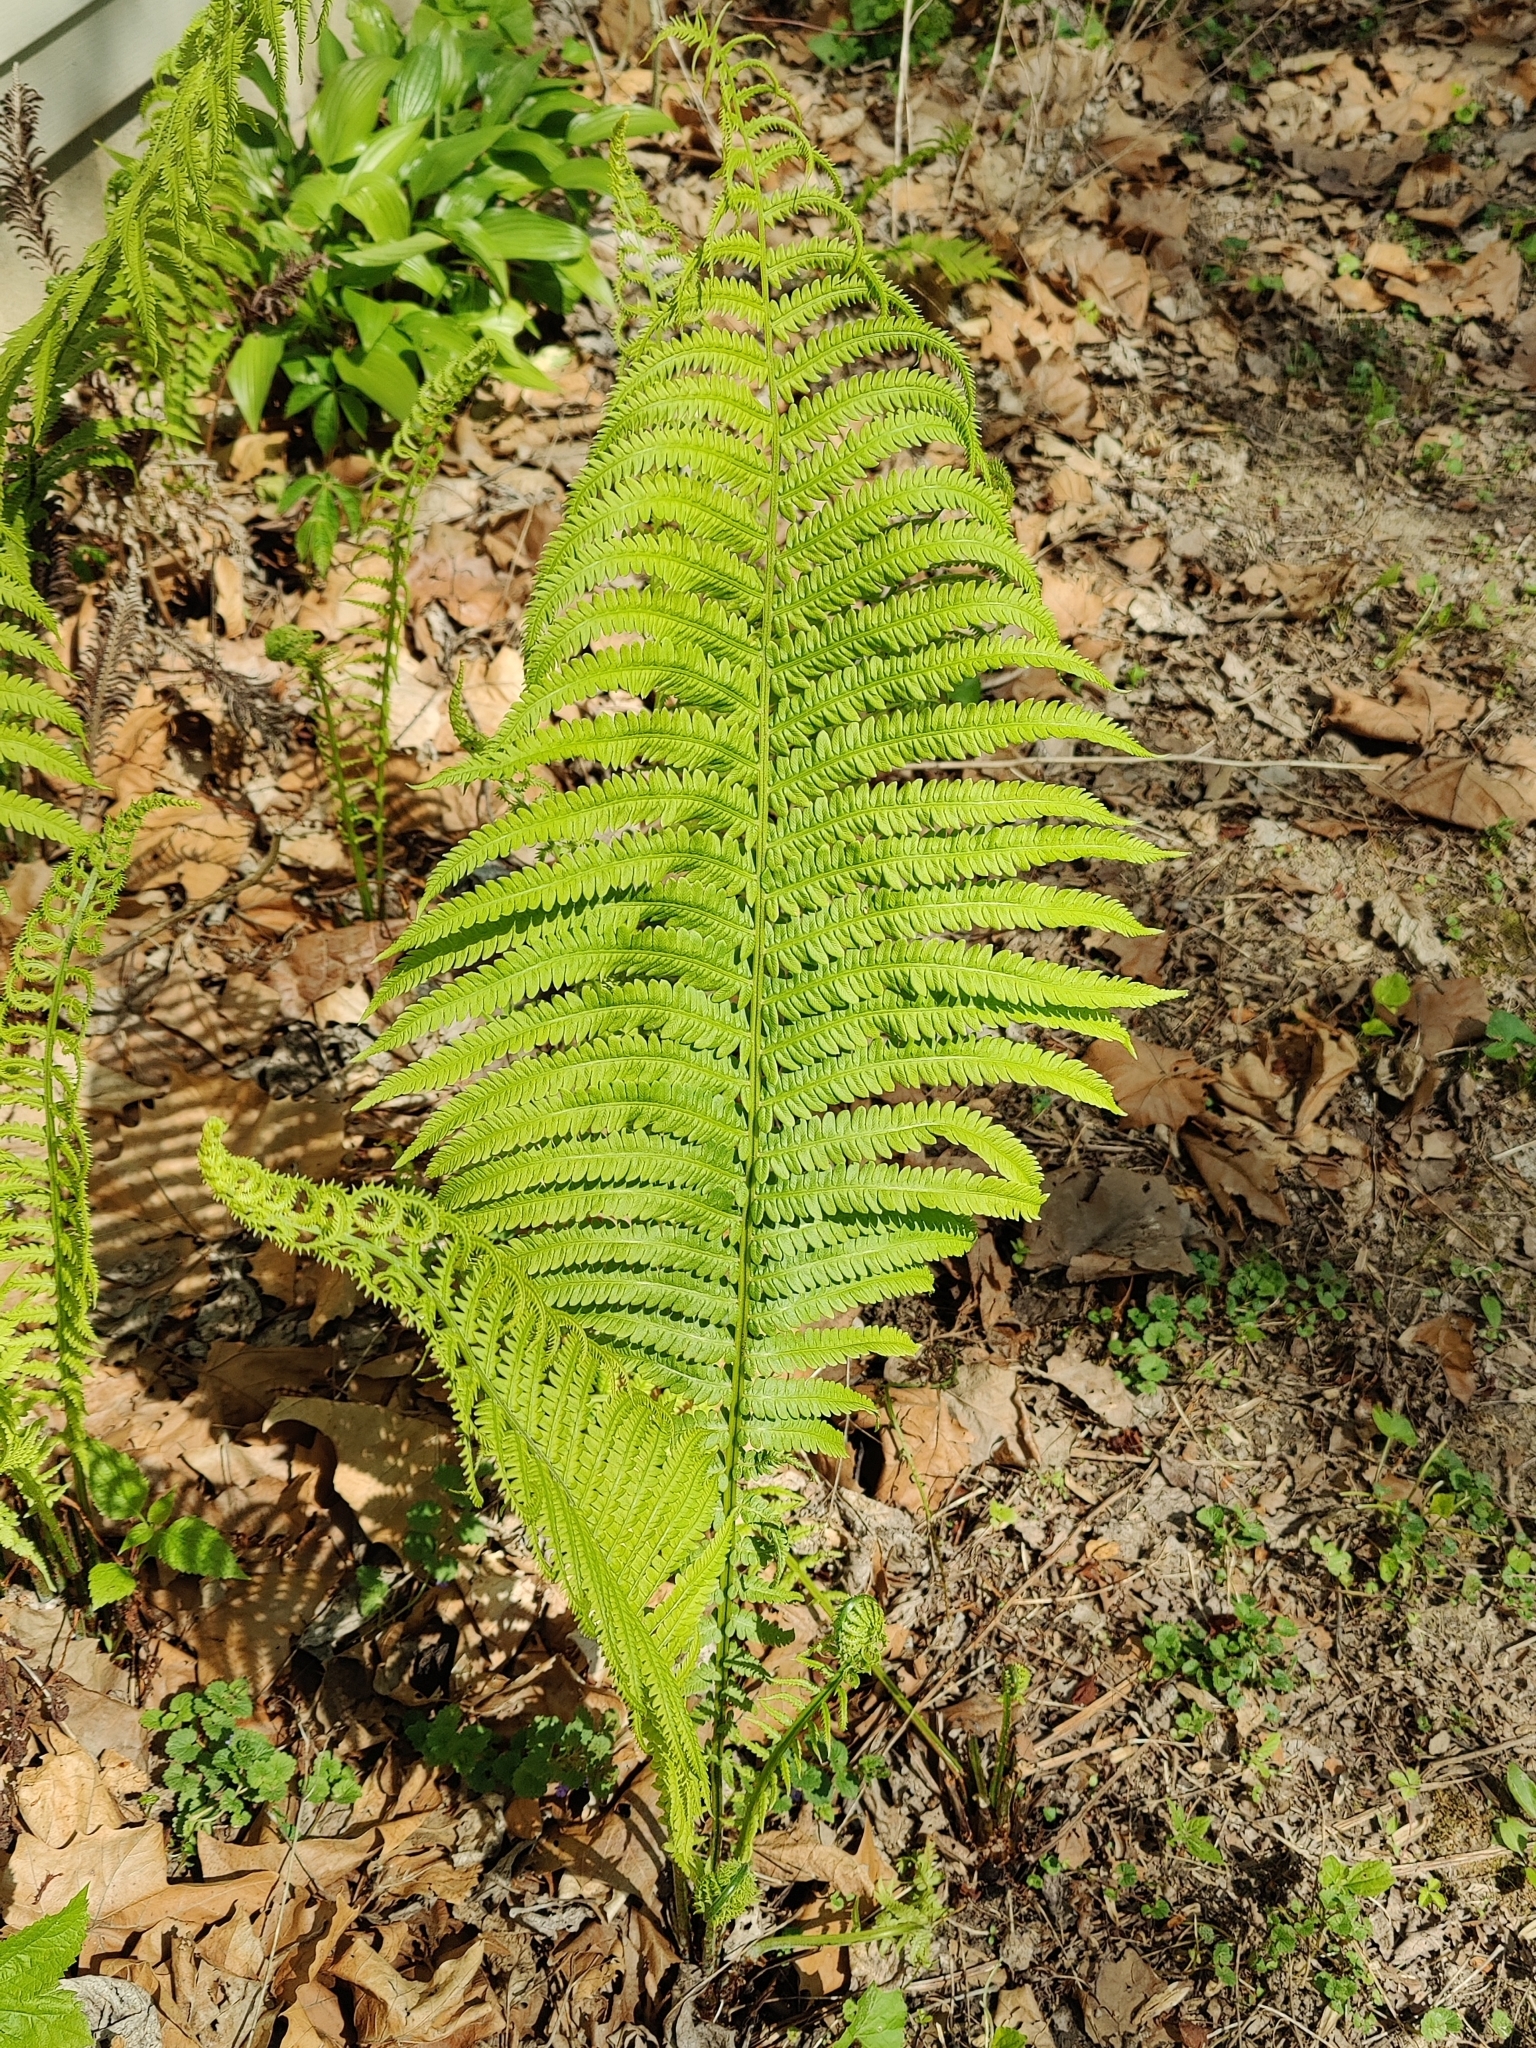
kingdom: Plantae
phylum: Tracheophyta
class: Polypodiopsida
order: Polypodiales
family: Onocleaceae
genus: Matteuccia
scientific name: Matteuccia struthiopteris
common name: Ostrich fern
